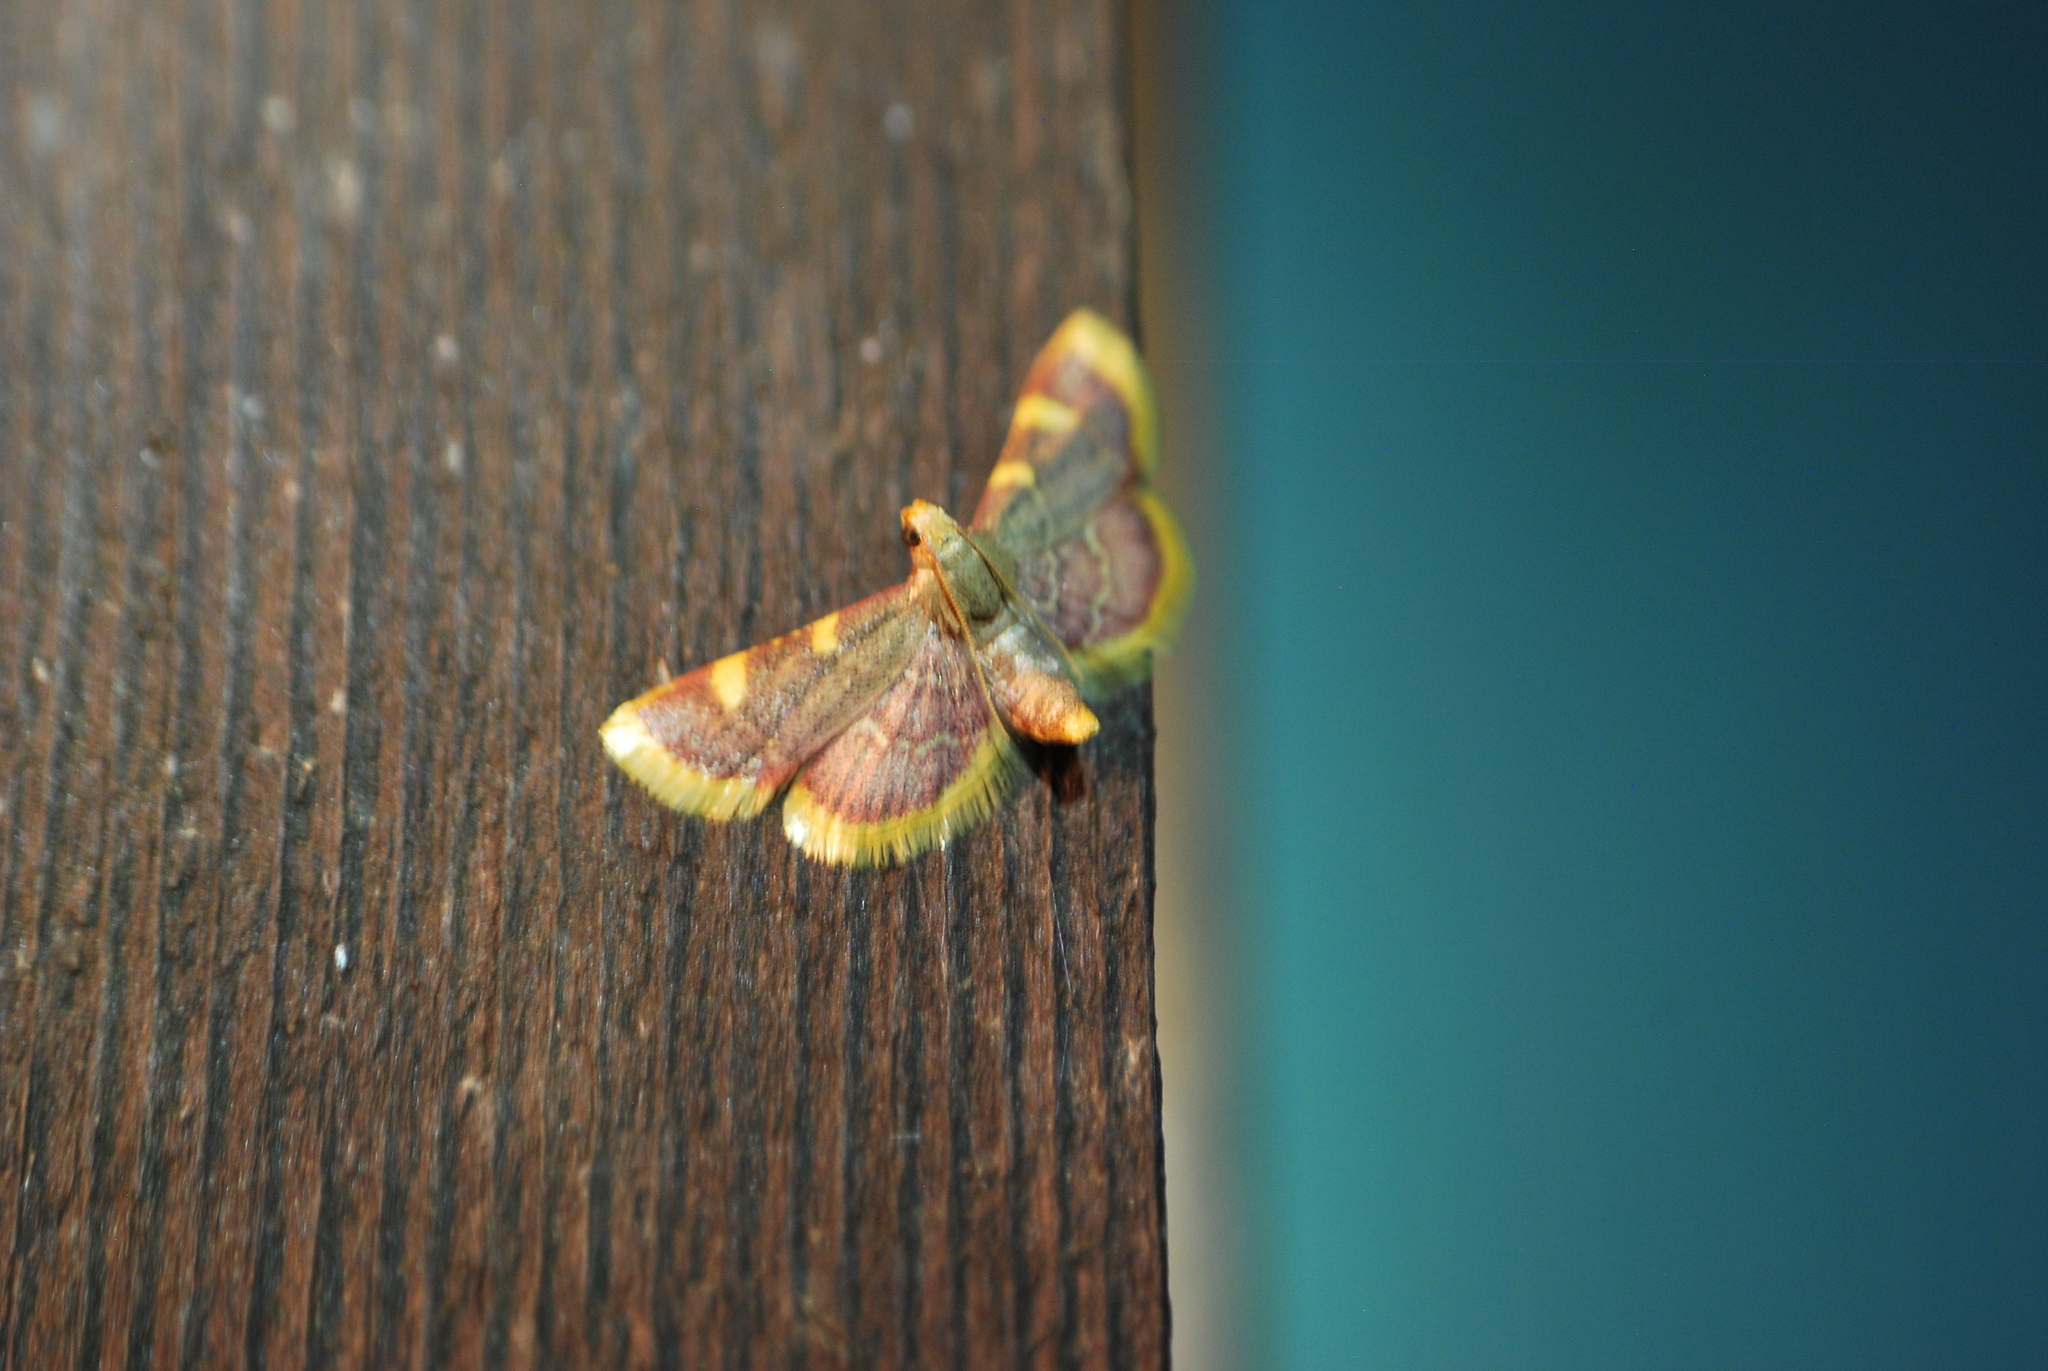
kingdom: Animalia
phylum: Arthropoda
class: Insecta
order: Lepidoptera
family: Pyralidae
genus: Hypsopygia
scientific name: Hypsopygia costalis
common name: Gold triangle
